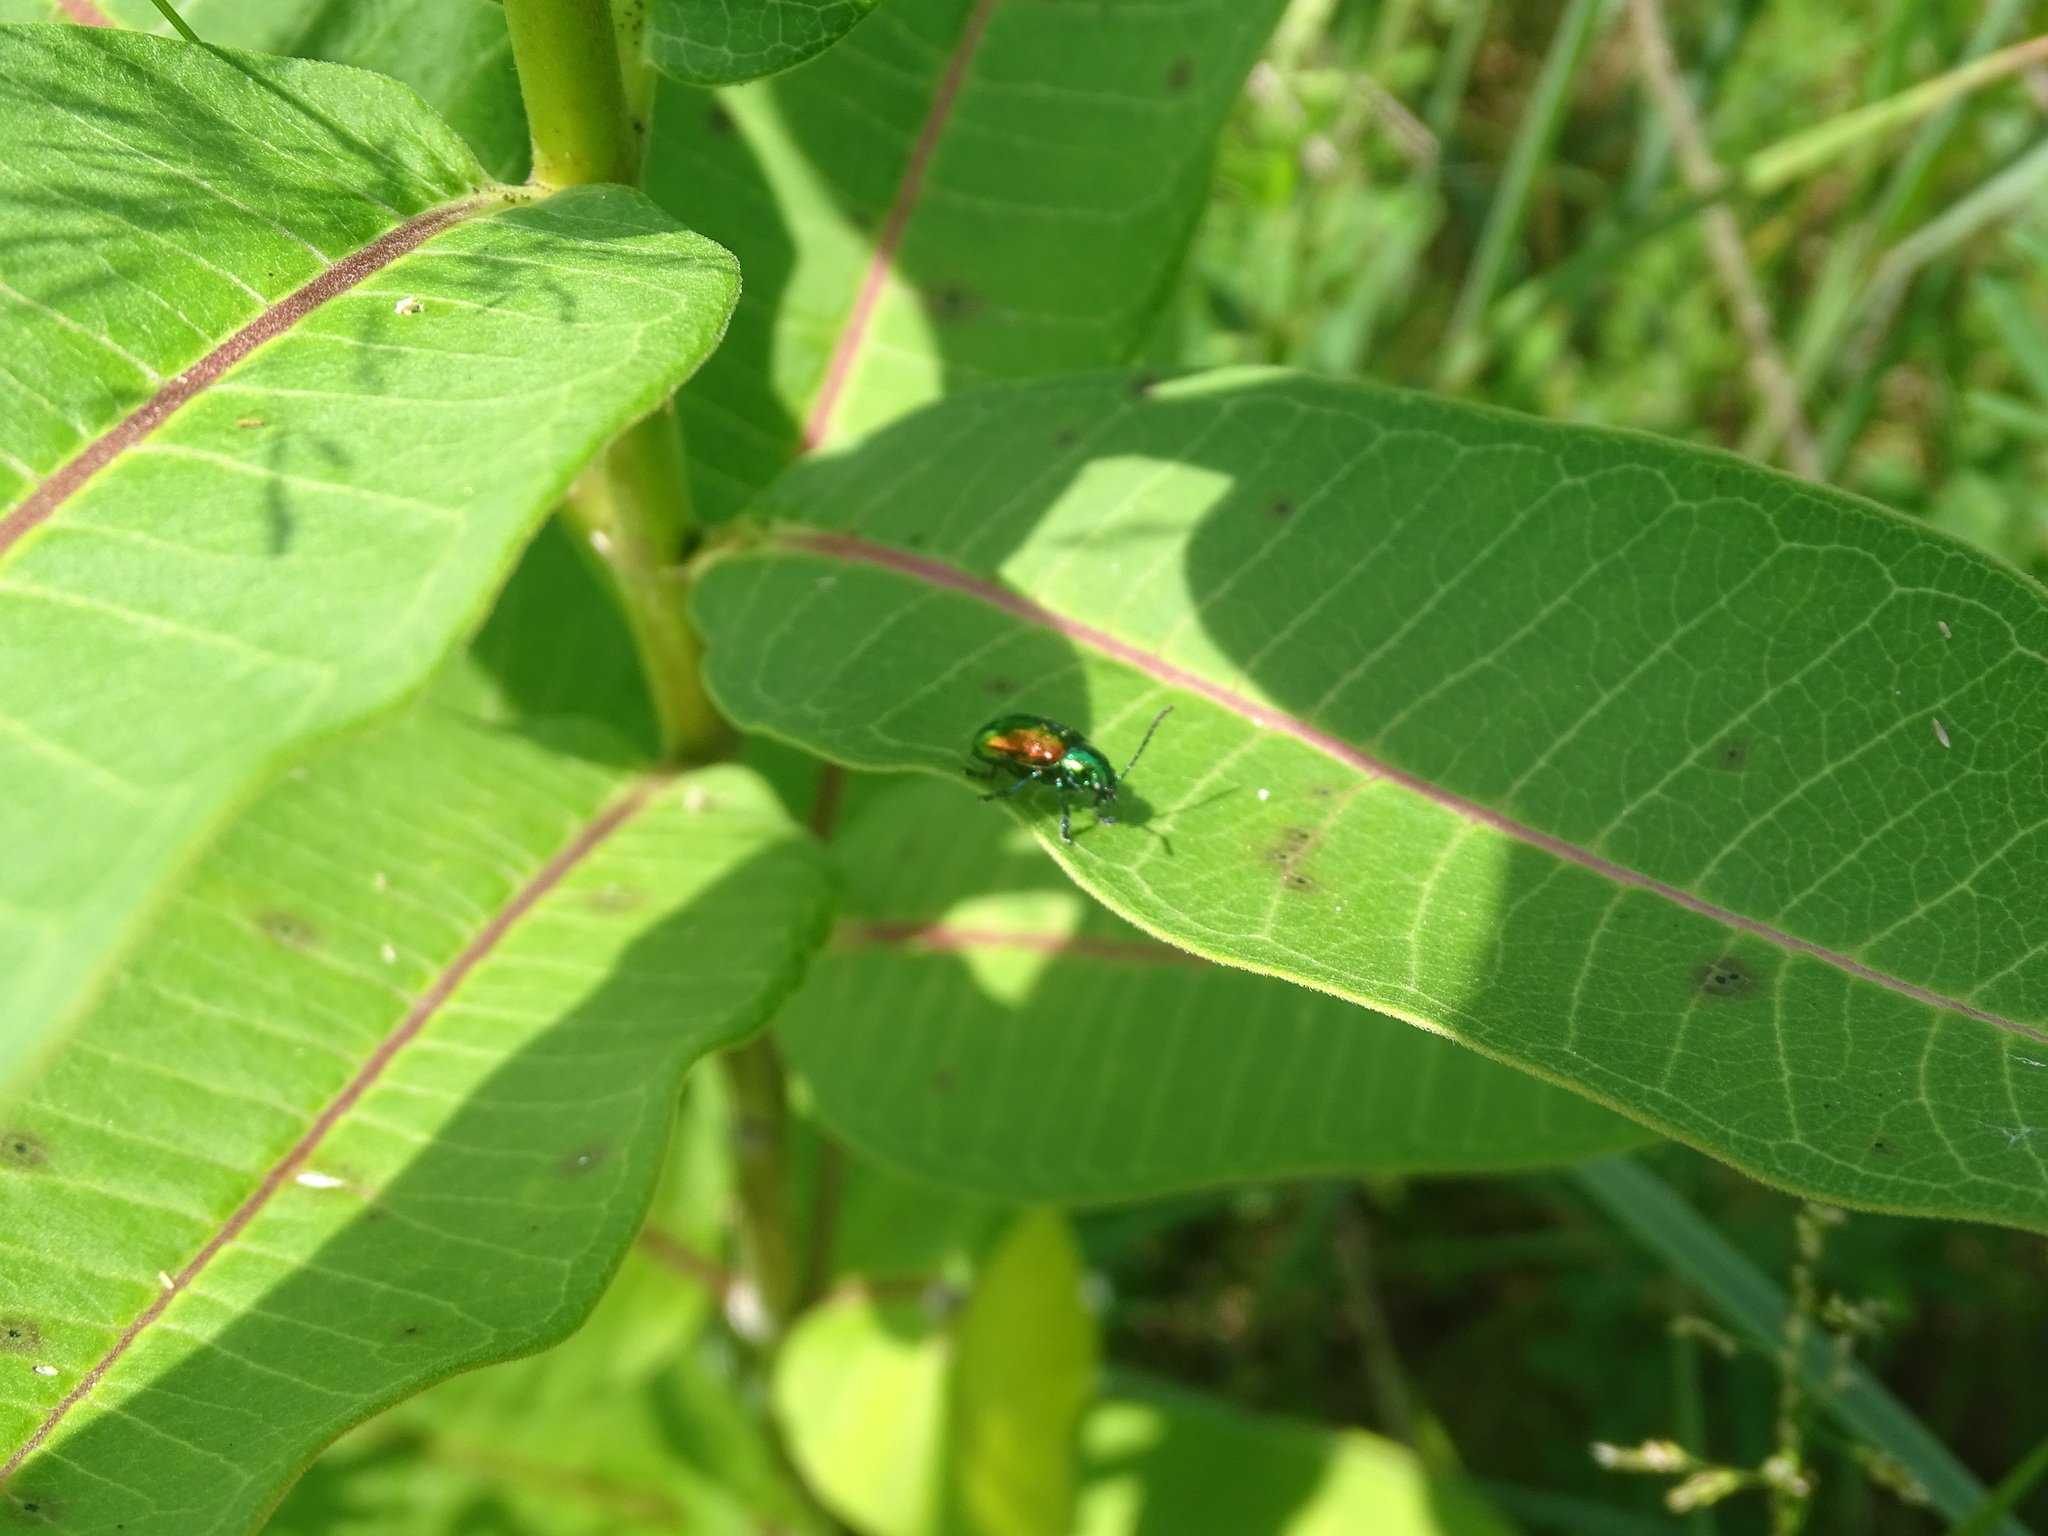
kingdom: Animalia
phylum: Arthropoda
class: Insecta
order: Coleoptera
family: Chrysomelidae
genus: Chrysochus
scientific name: Chrysochus auratus
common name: Dogbane leaf beetle
